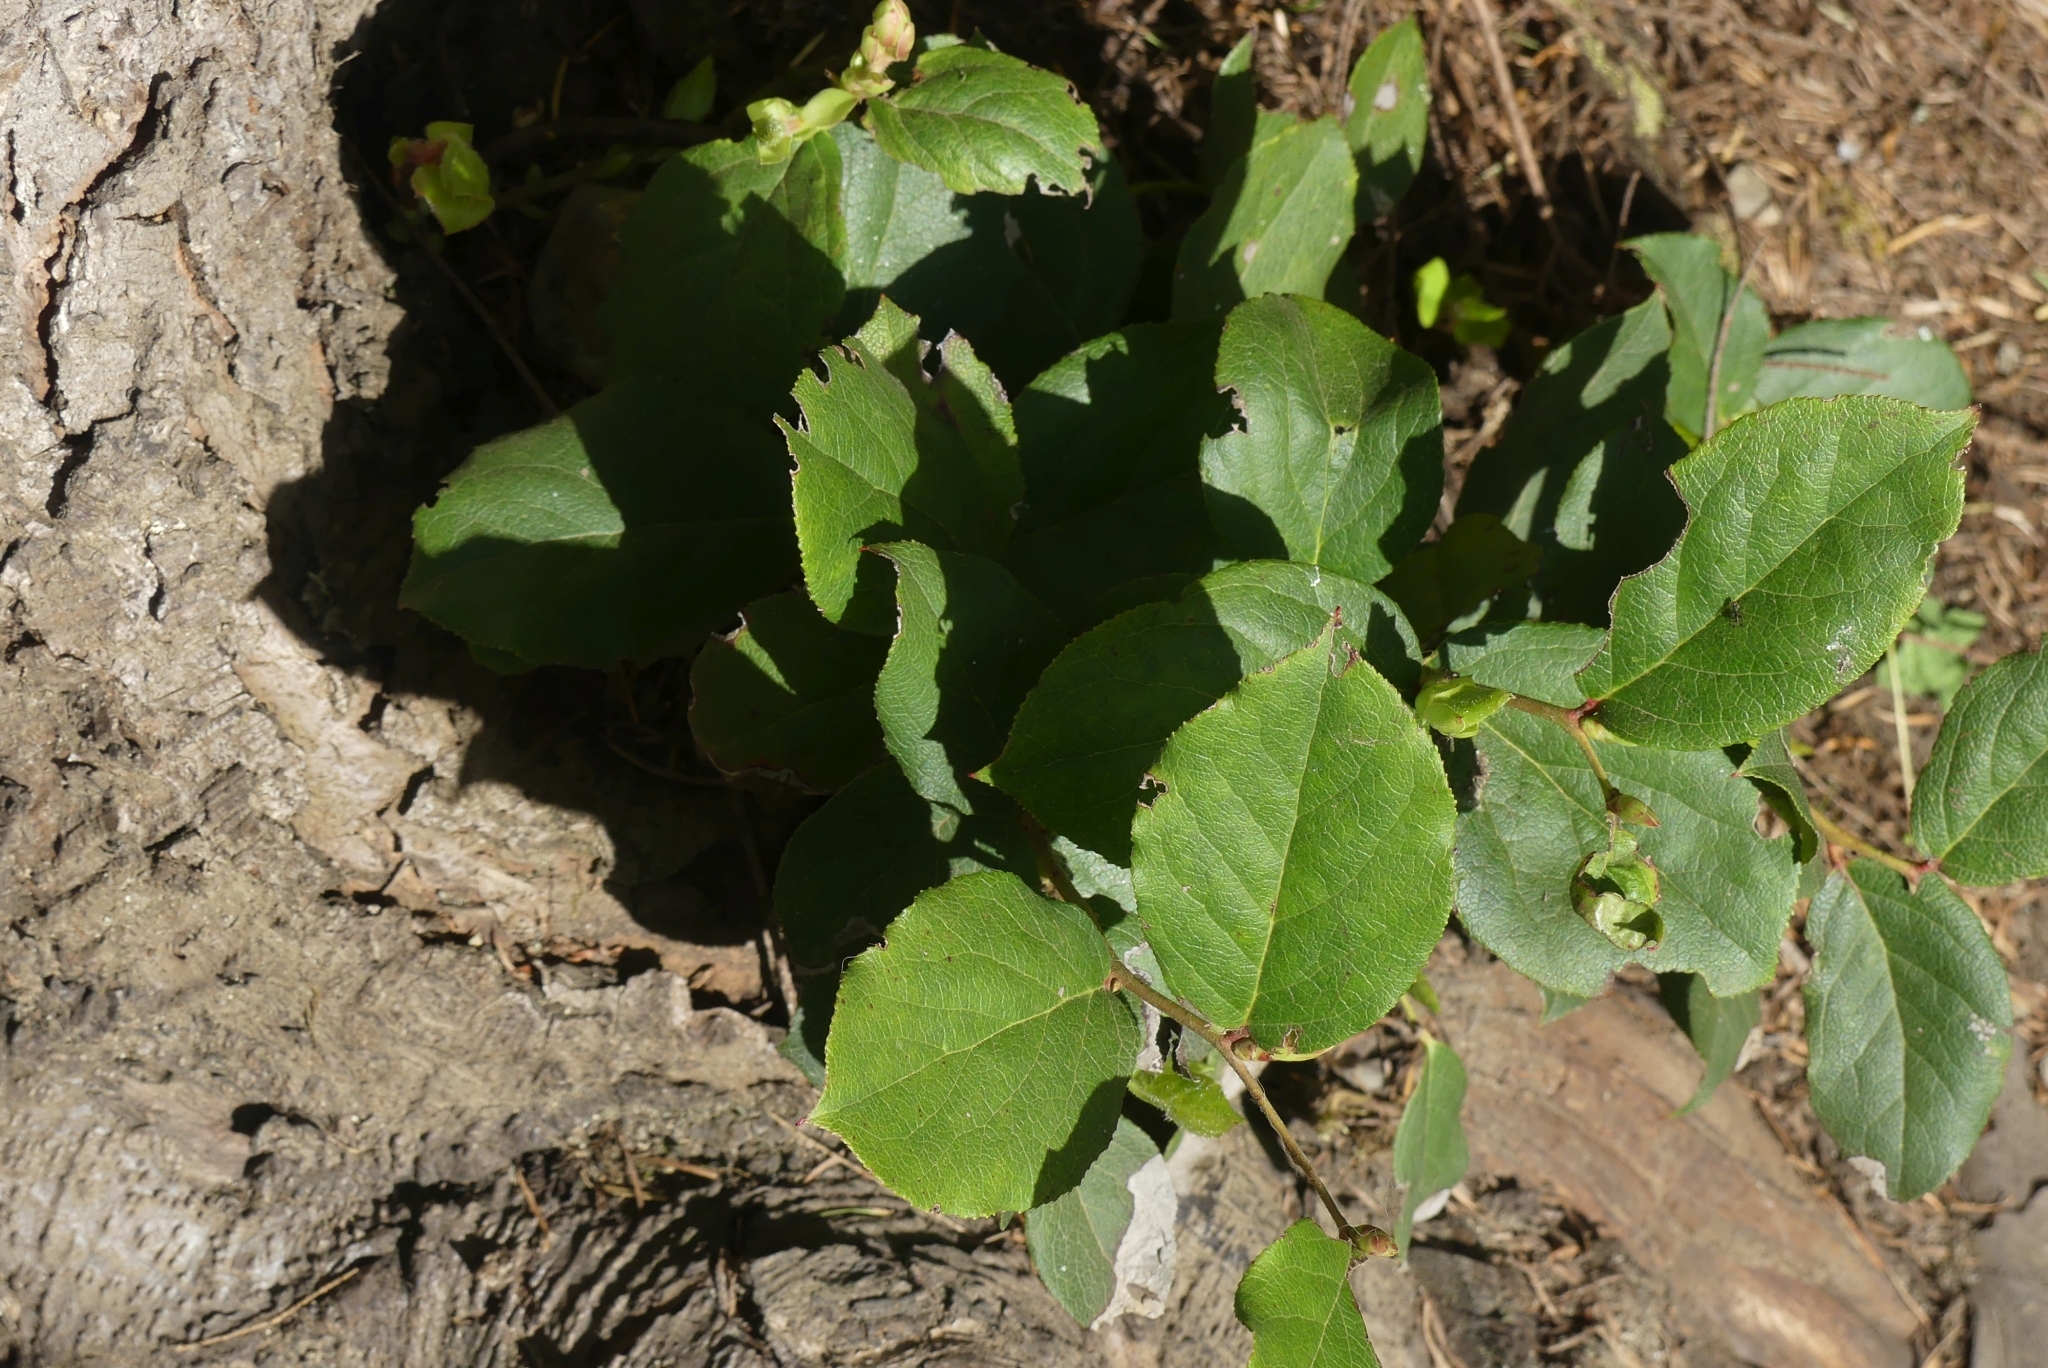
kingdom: Plantae
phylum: Tracheophyta
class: Magnoliopsida
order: Ericales
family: Ericaceae
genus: Gaultheria
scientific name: Gaultheria shallon
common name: Shallon
